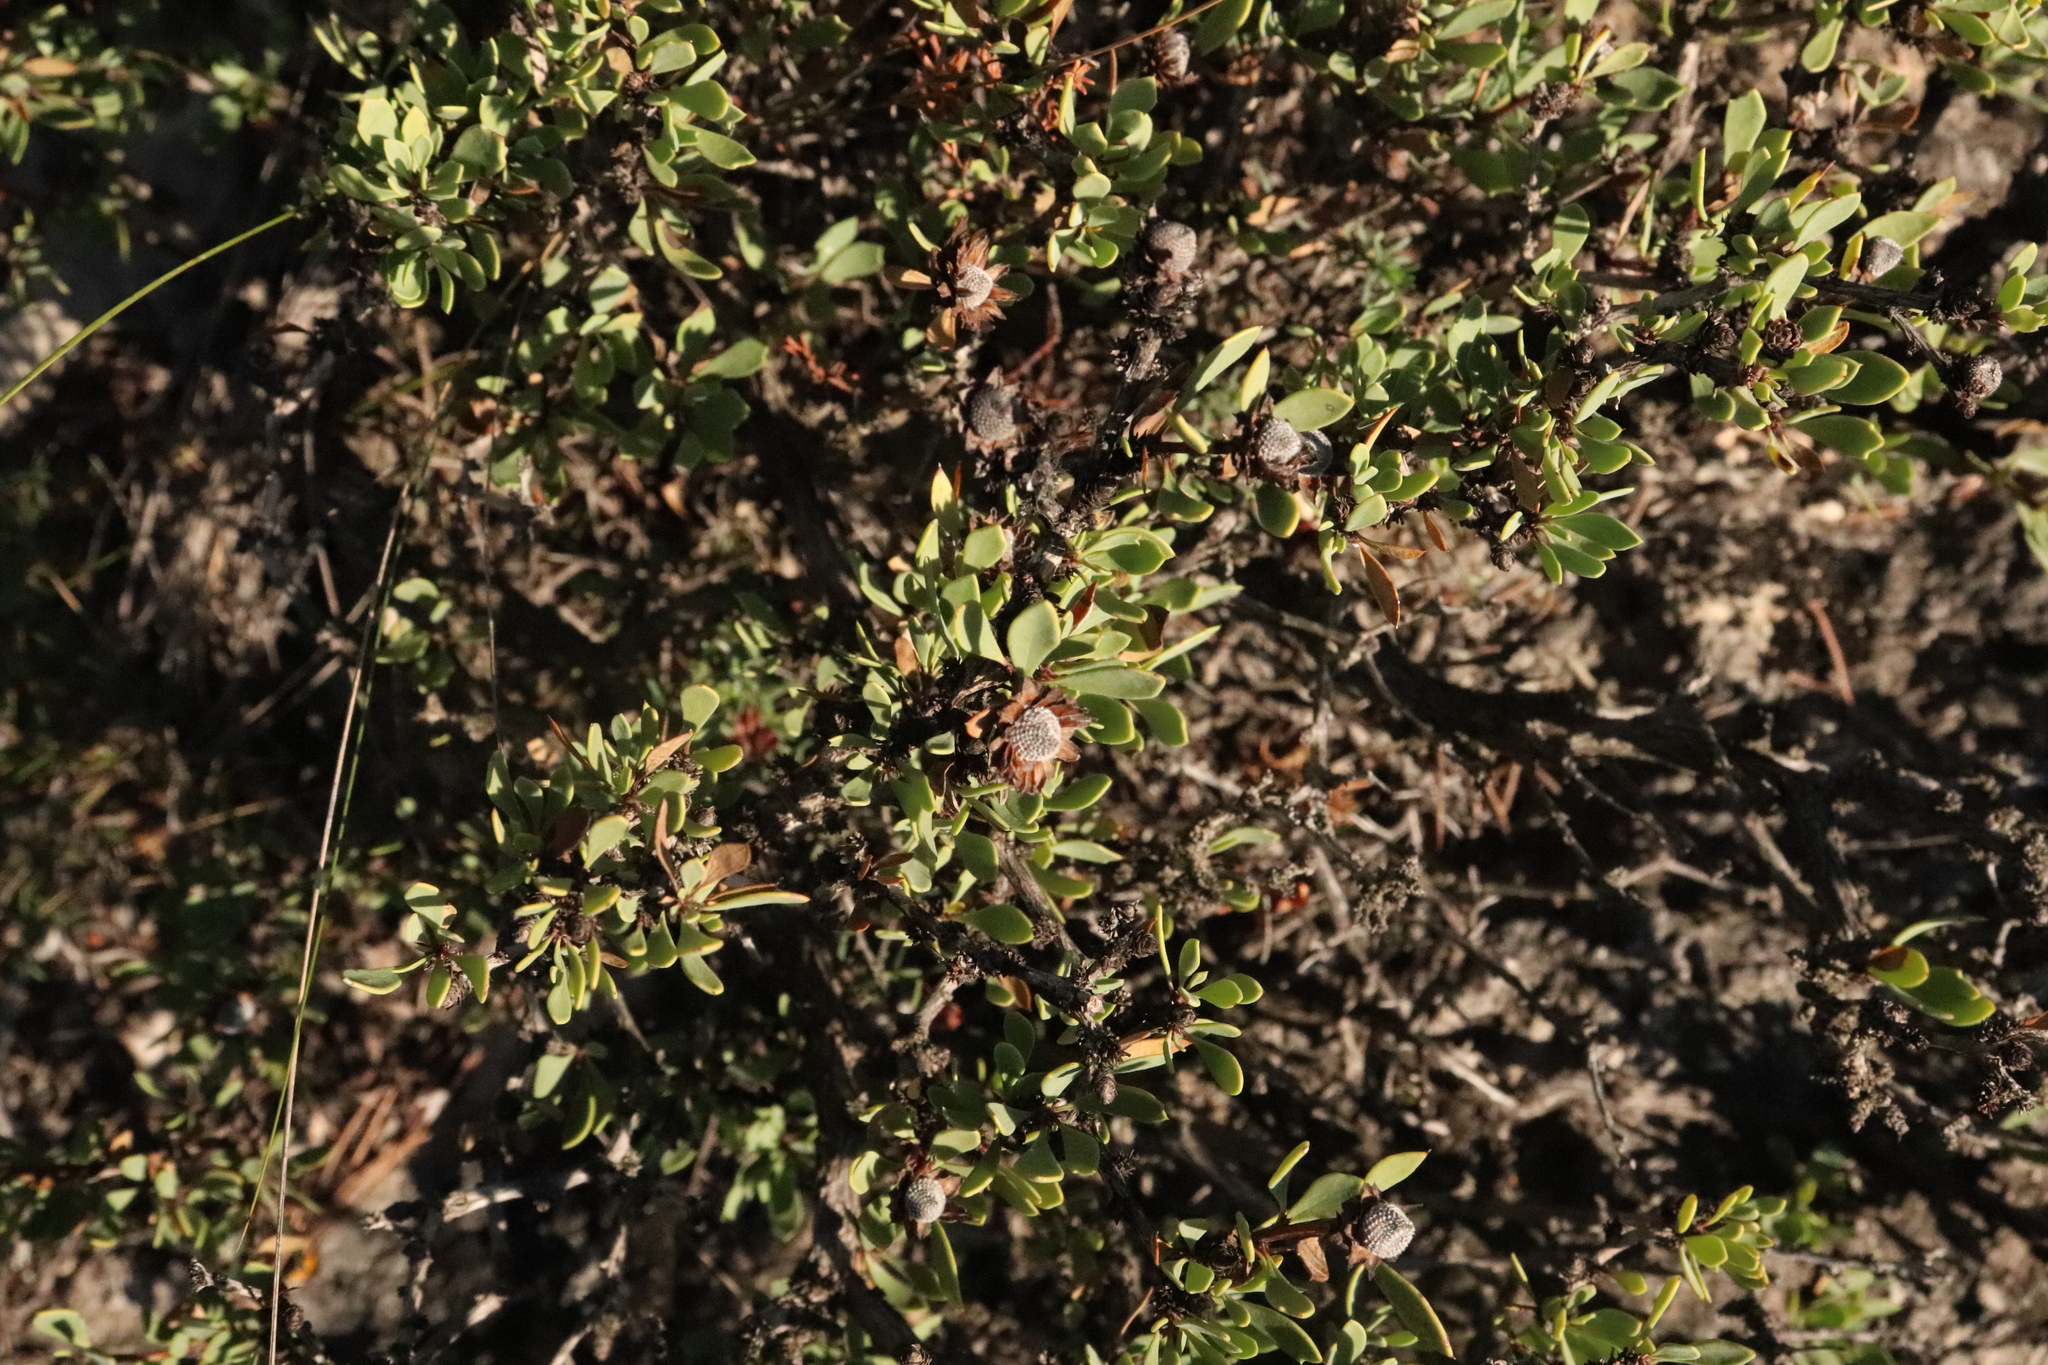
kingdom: Plantae
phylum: Tracheophyta
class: Magnoliopsida
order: Lamiales
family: Plantaginaceae
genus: Globularia
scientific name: Globularia alypum
